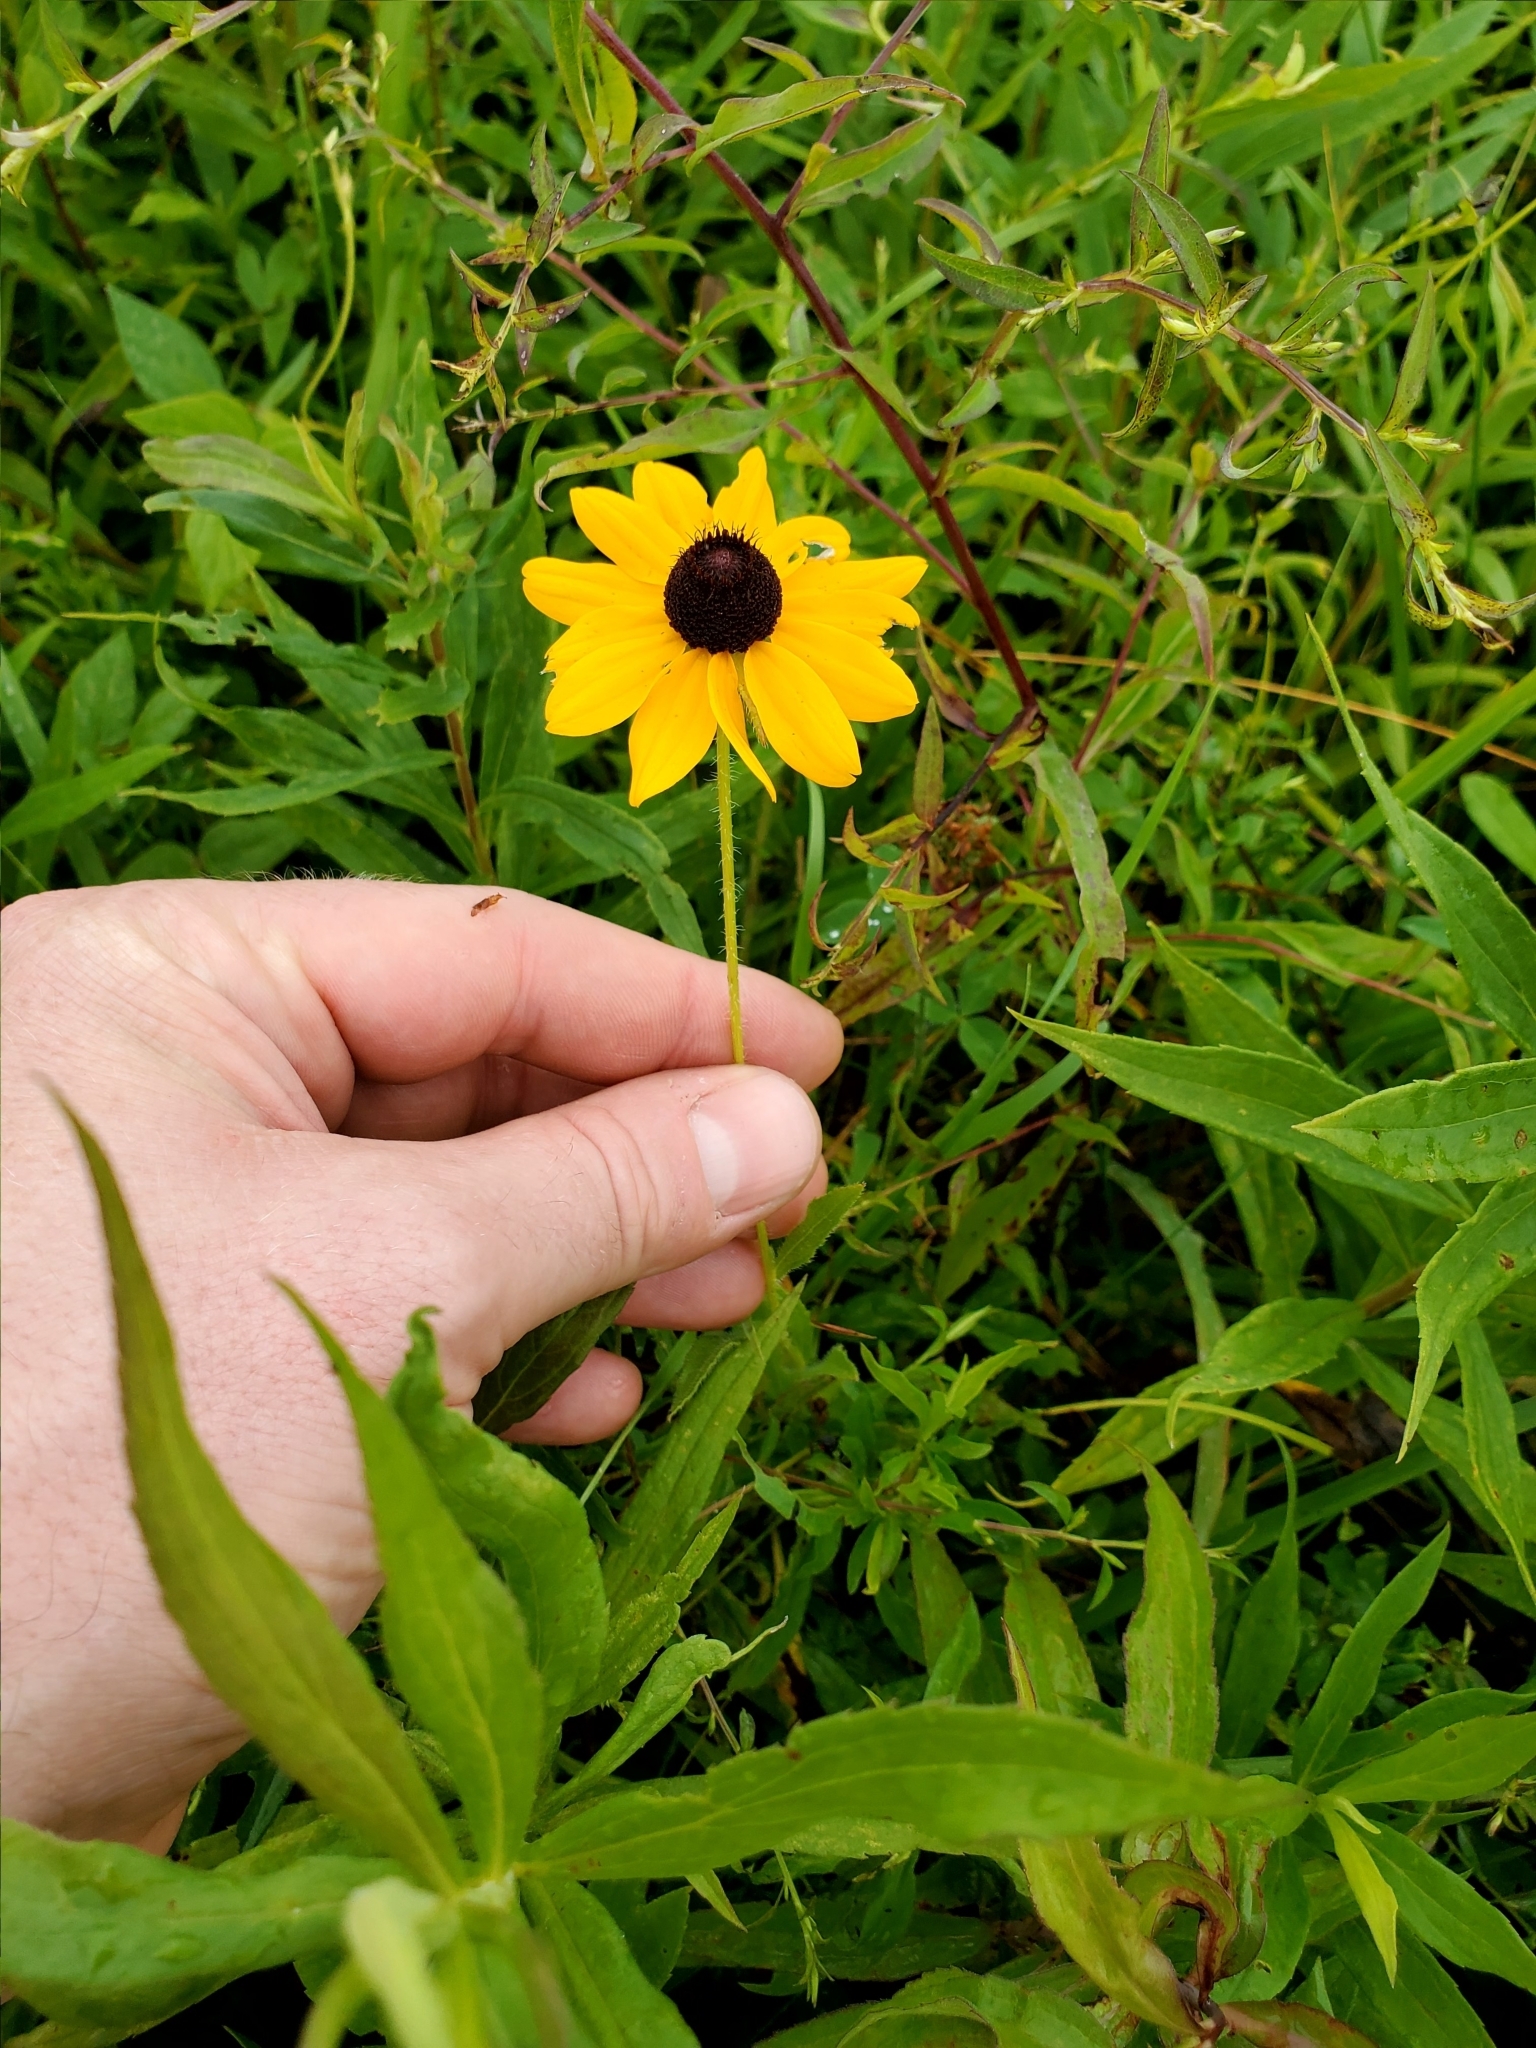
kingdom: Plantae
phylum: Tracheophyta
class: Magnoliopsida
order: Asterales
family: Asteraceae
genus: Rudbeckia
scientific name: Rudbeckia hirta
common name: Black-eyed-susan
